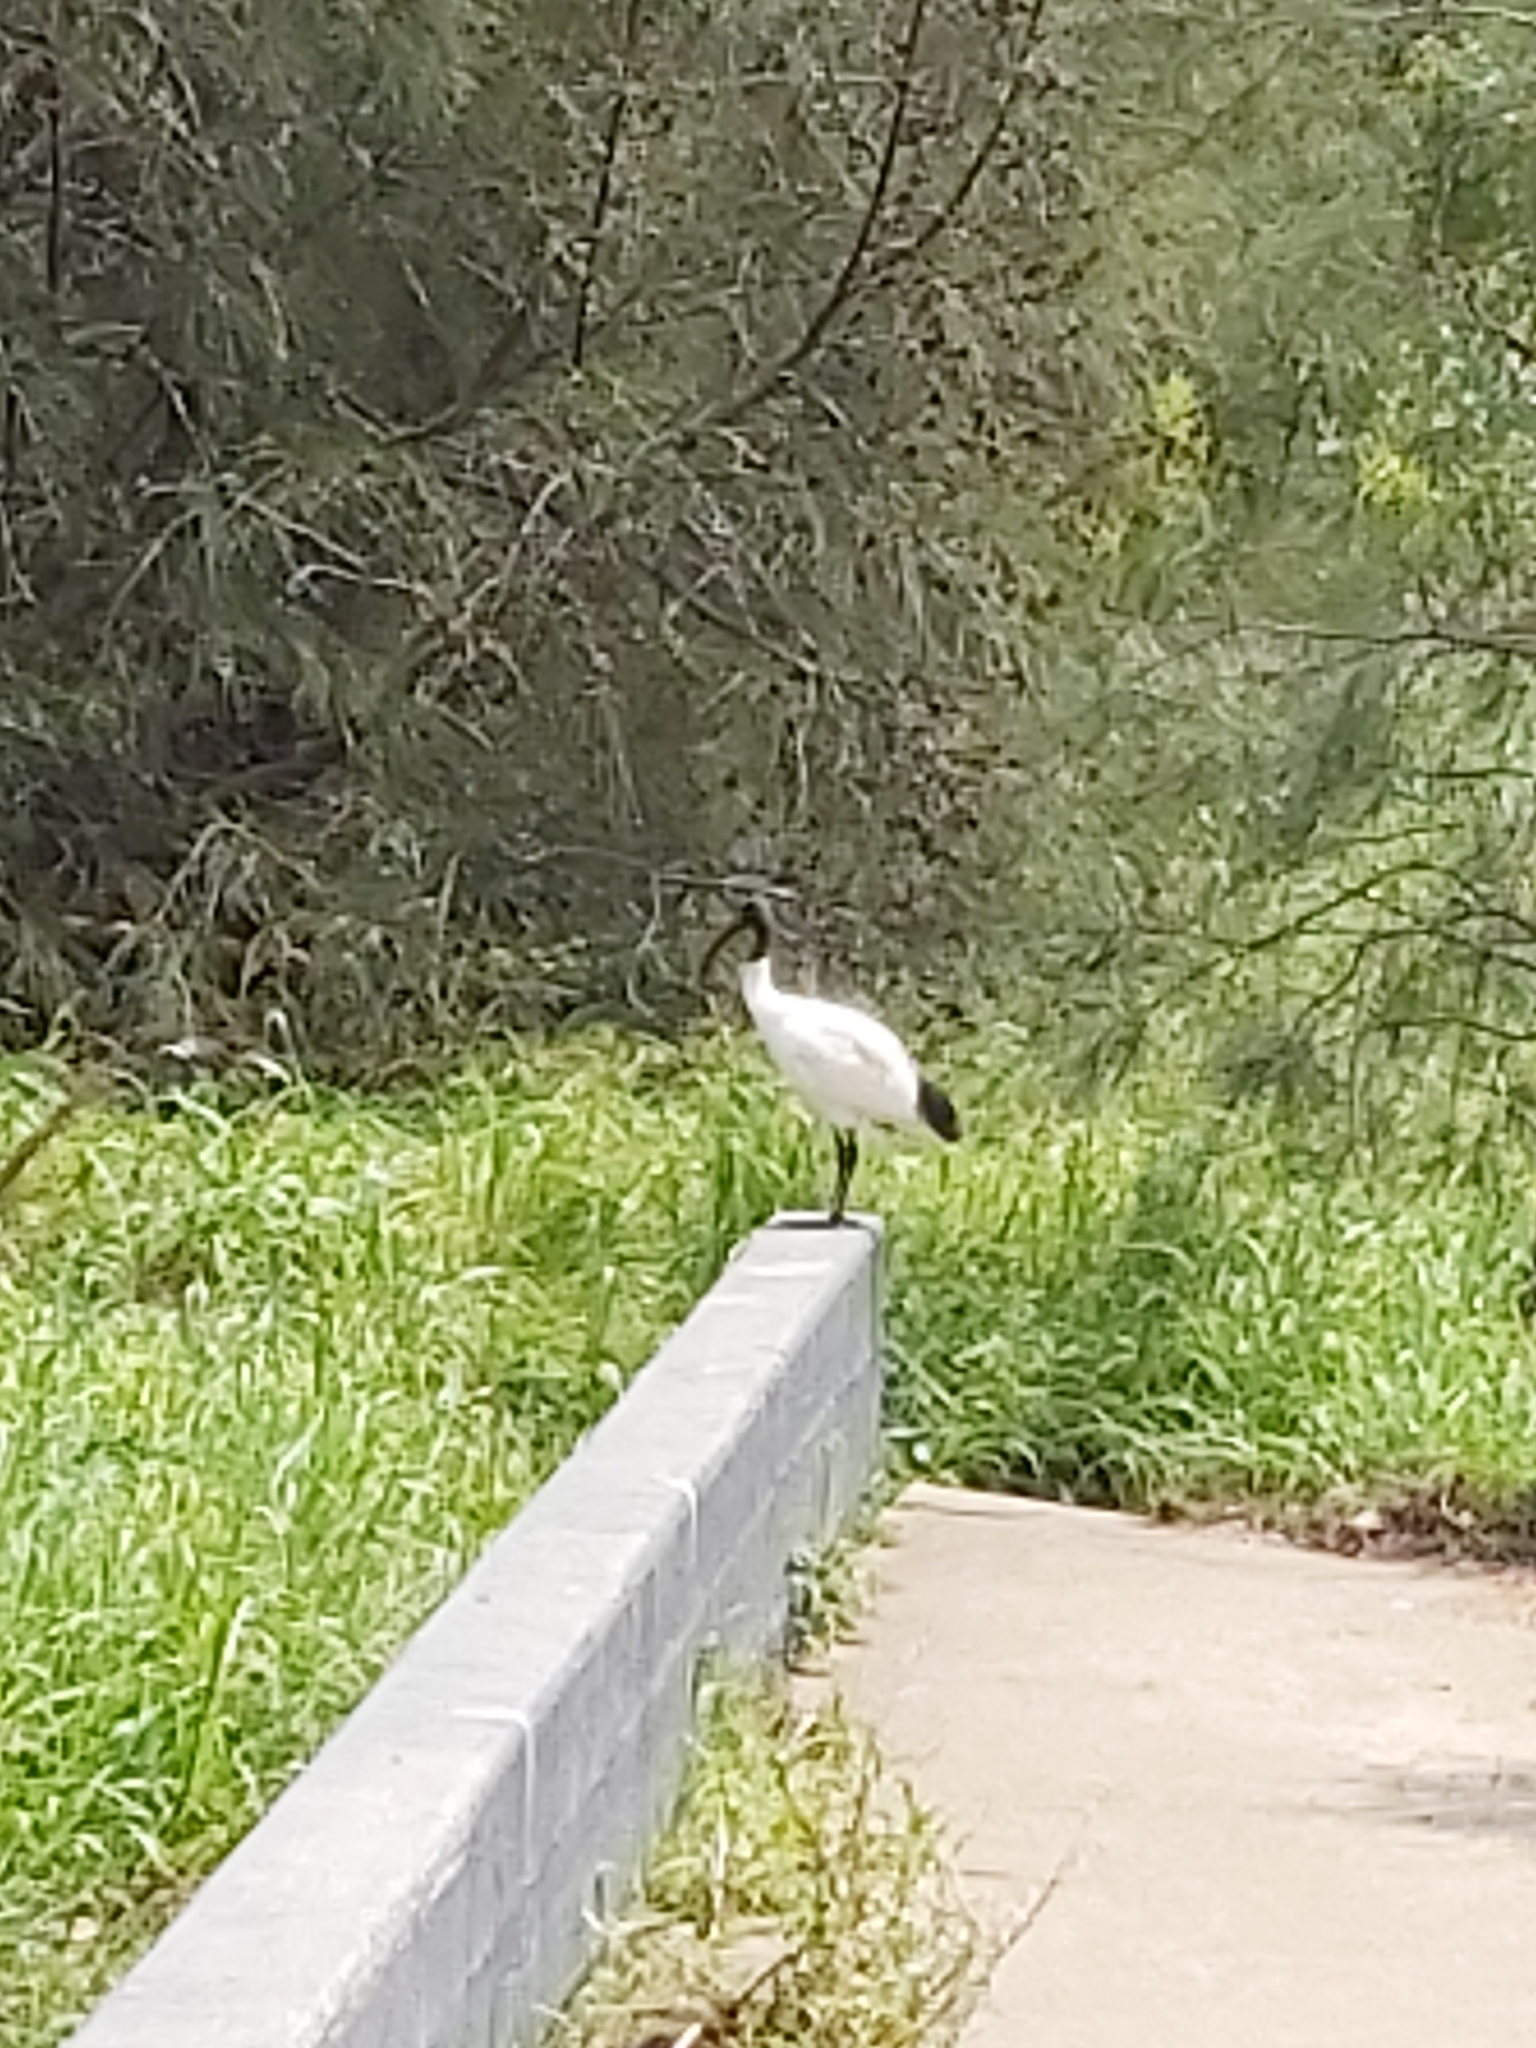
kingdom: Animalia
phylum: Chordata
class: Aves
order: Pelecaniformes
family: Threskiornithidae
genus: Threskiornis
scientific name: Threskiornis molucca
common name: Australian white ibis
